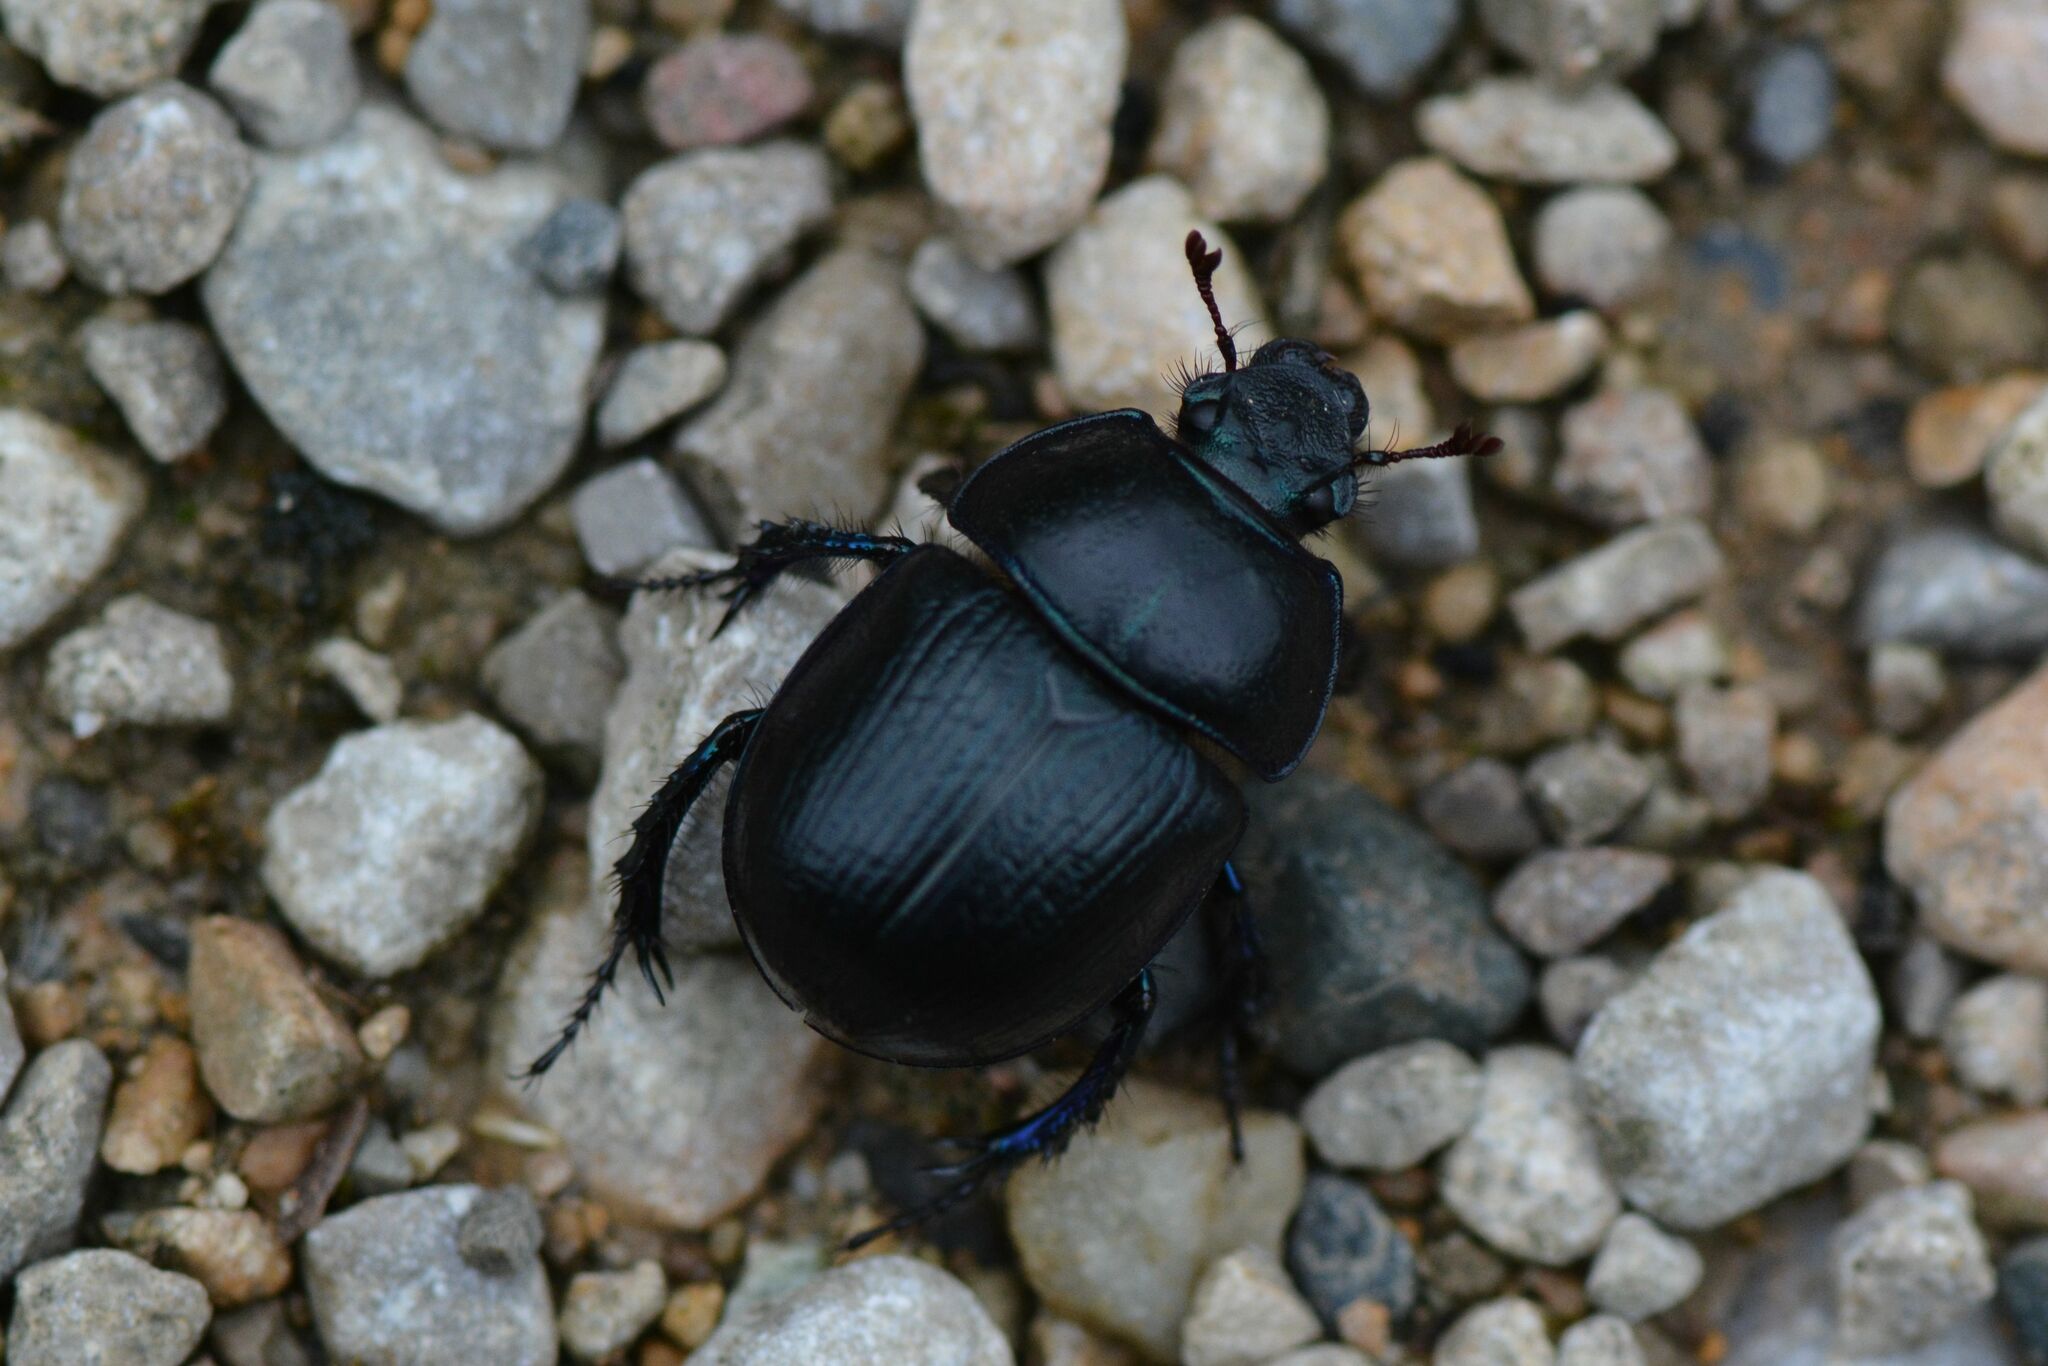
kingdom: Animalia
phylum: Arthropoda
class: Insecta
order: Coleoptera
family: Geotrupidae
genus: Anoplotrupes
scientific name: Anoplotrupes stercorosus
